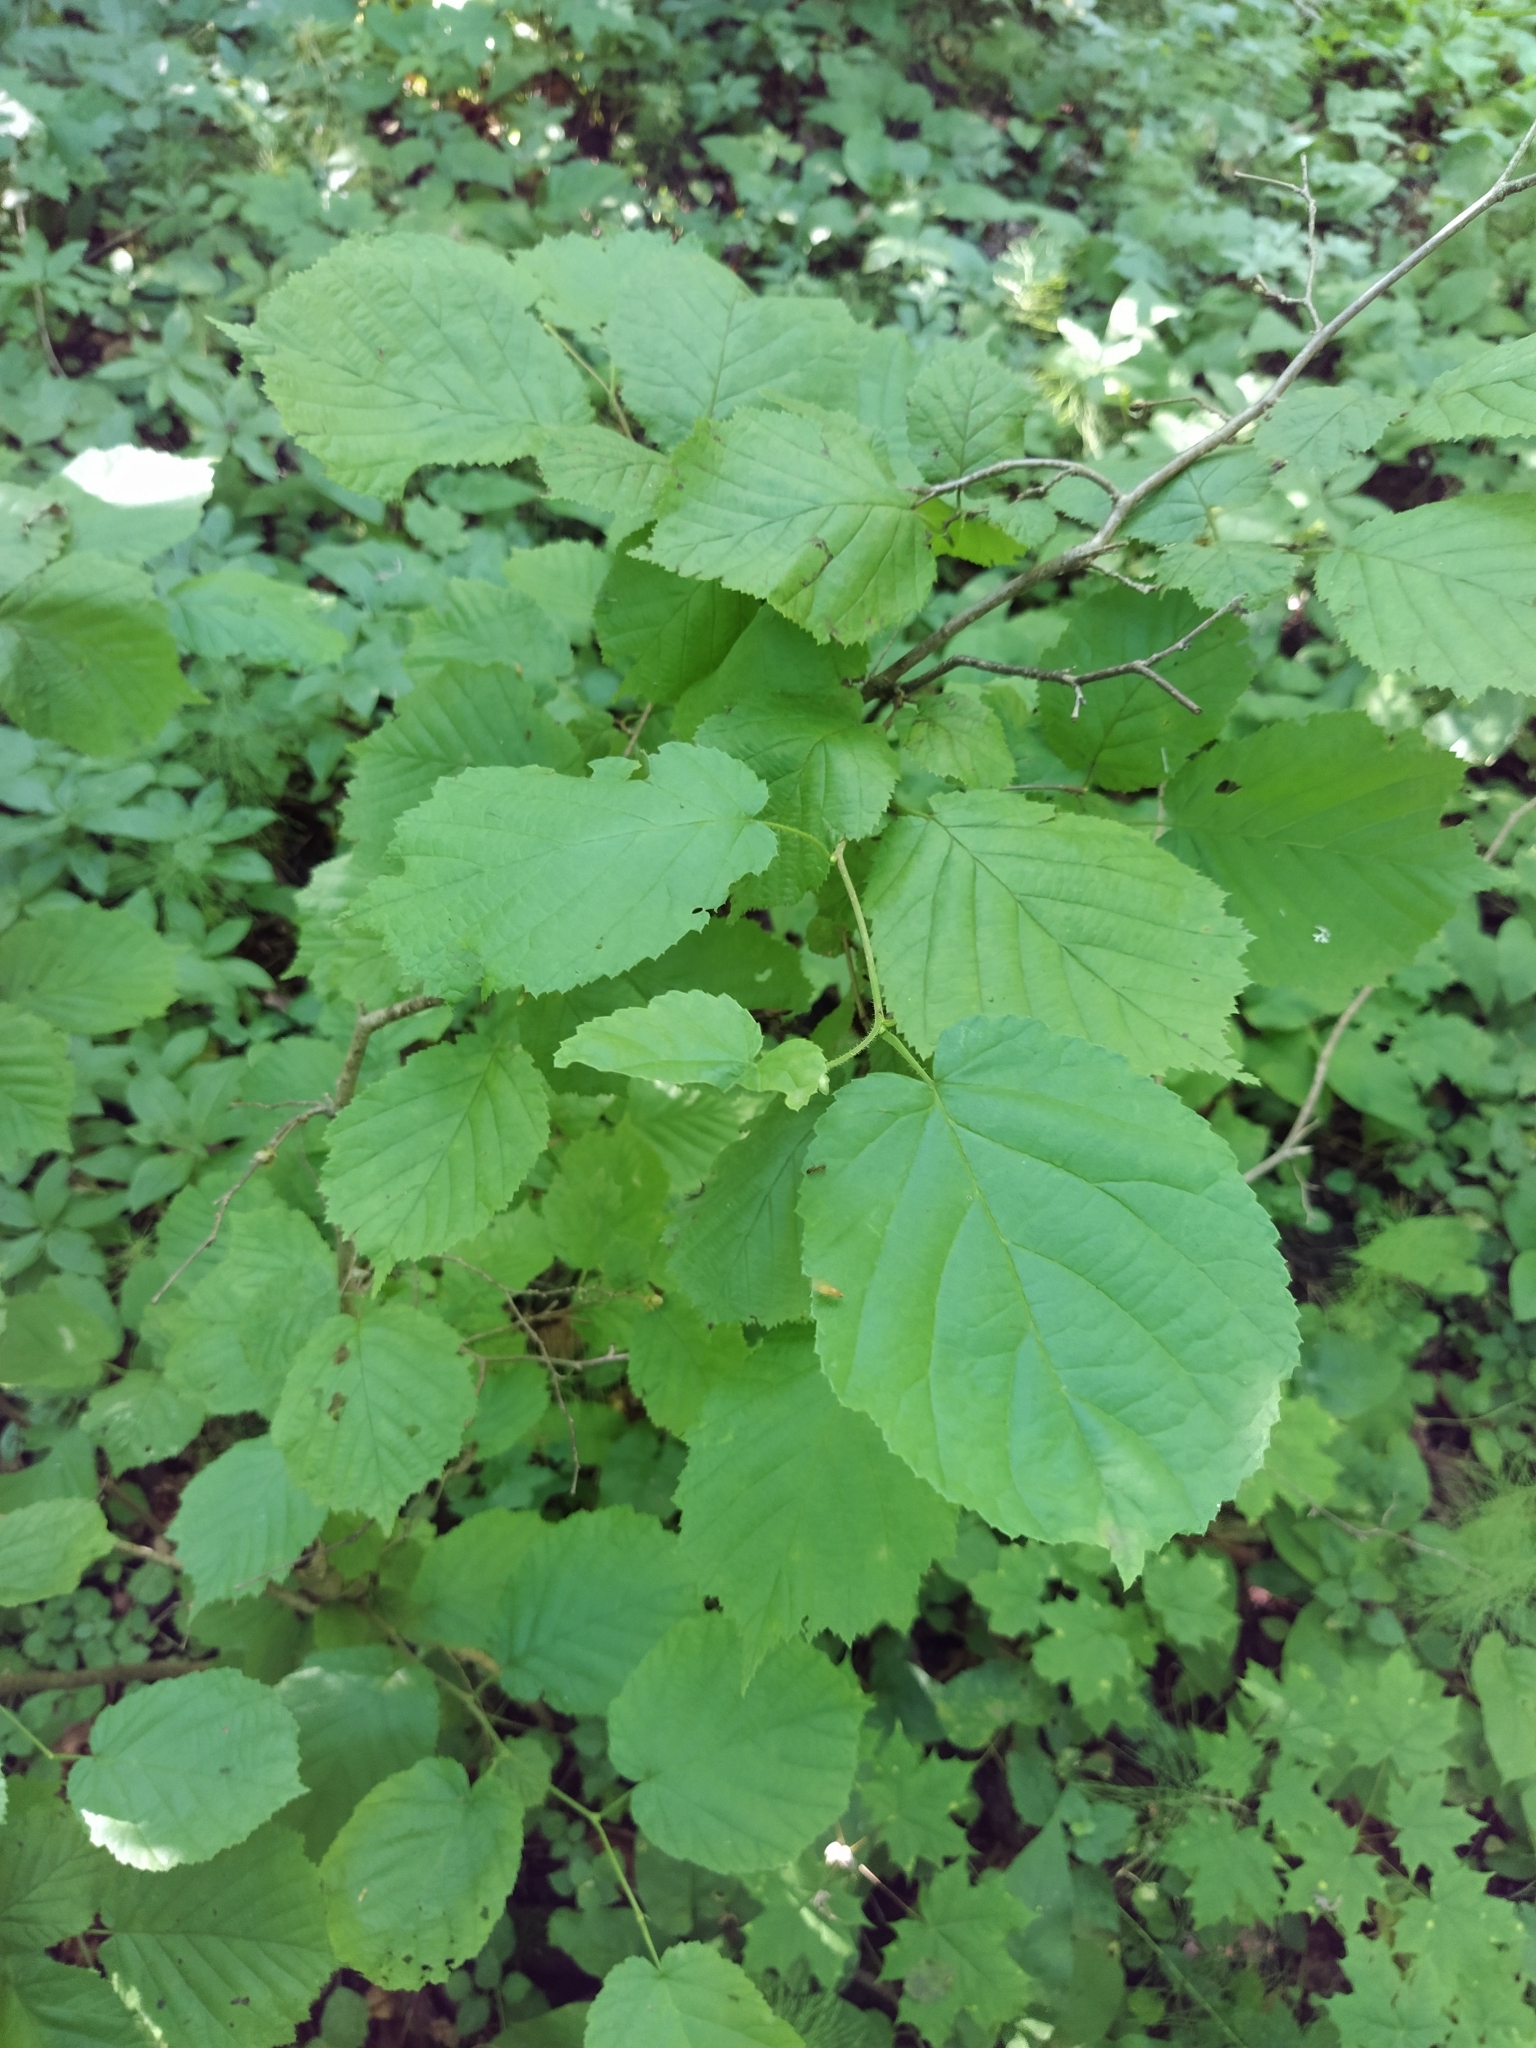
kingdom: Plantae
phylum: Tracheophyta
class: Magnoliopsida
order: Fagales
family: Betulaceae
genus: Corylus
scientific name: Corylus avellana
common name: European hazel
